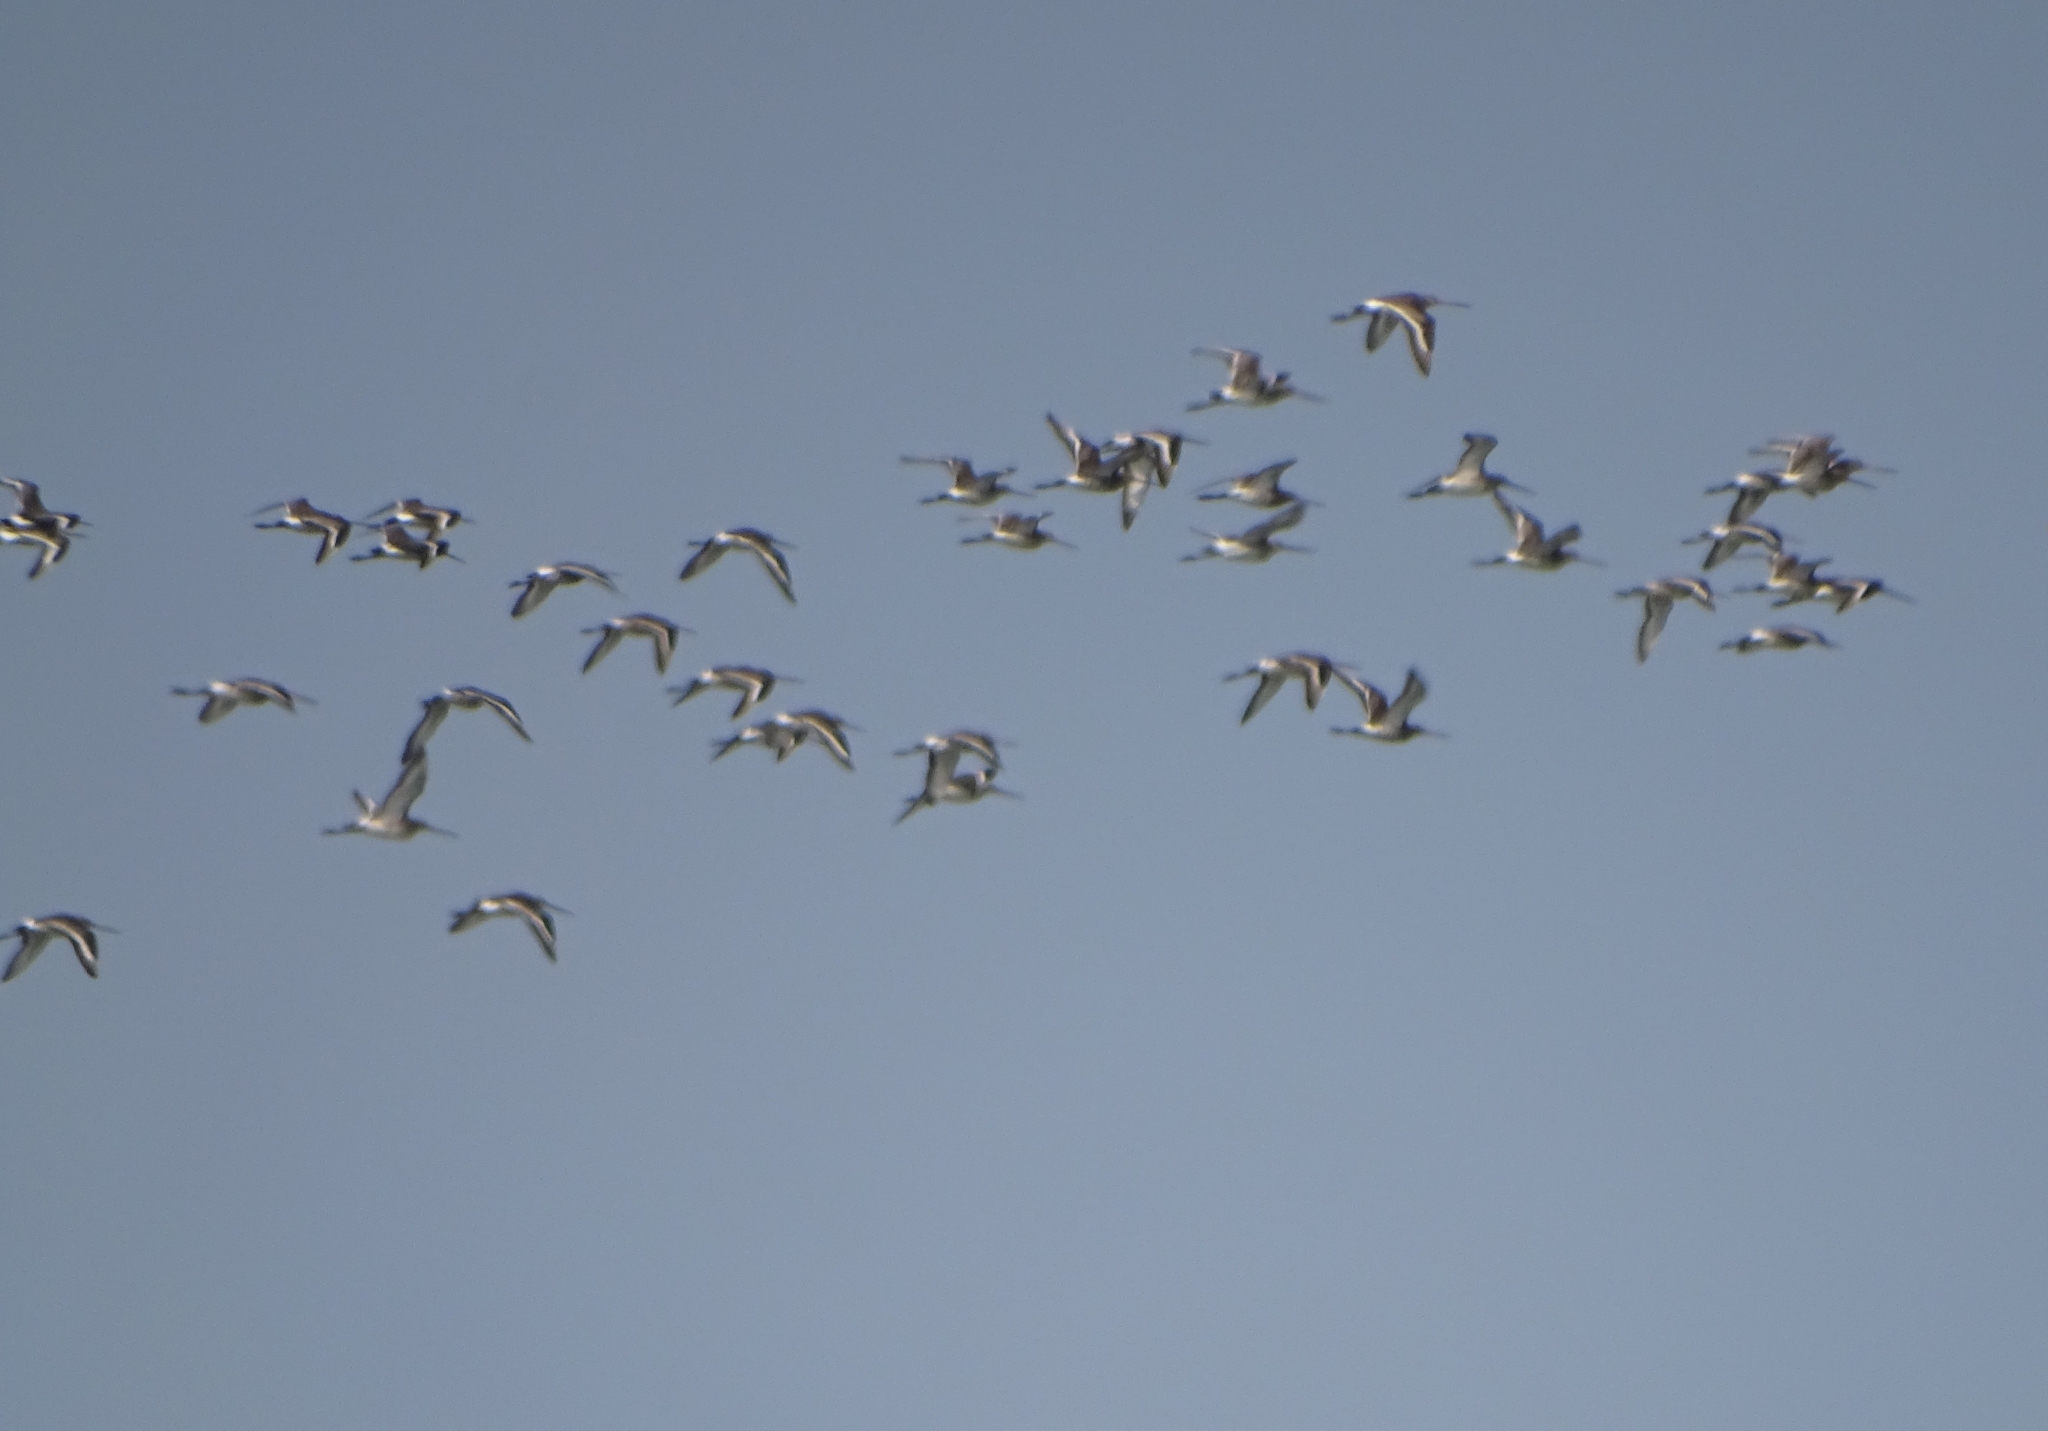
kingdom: Animalia
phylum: Chordata
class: Aves
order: Charadriiformes
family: Scolopacidae
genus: Limosa
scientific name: Limosa limosa
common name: Black-tailed godwit
